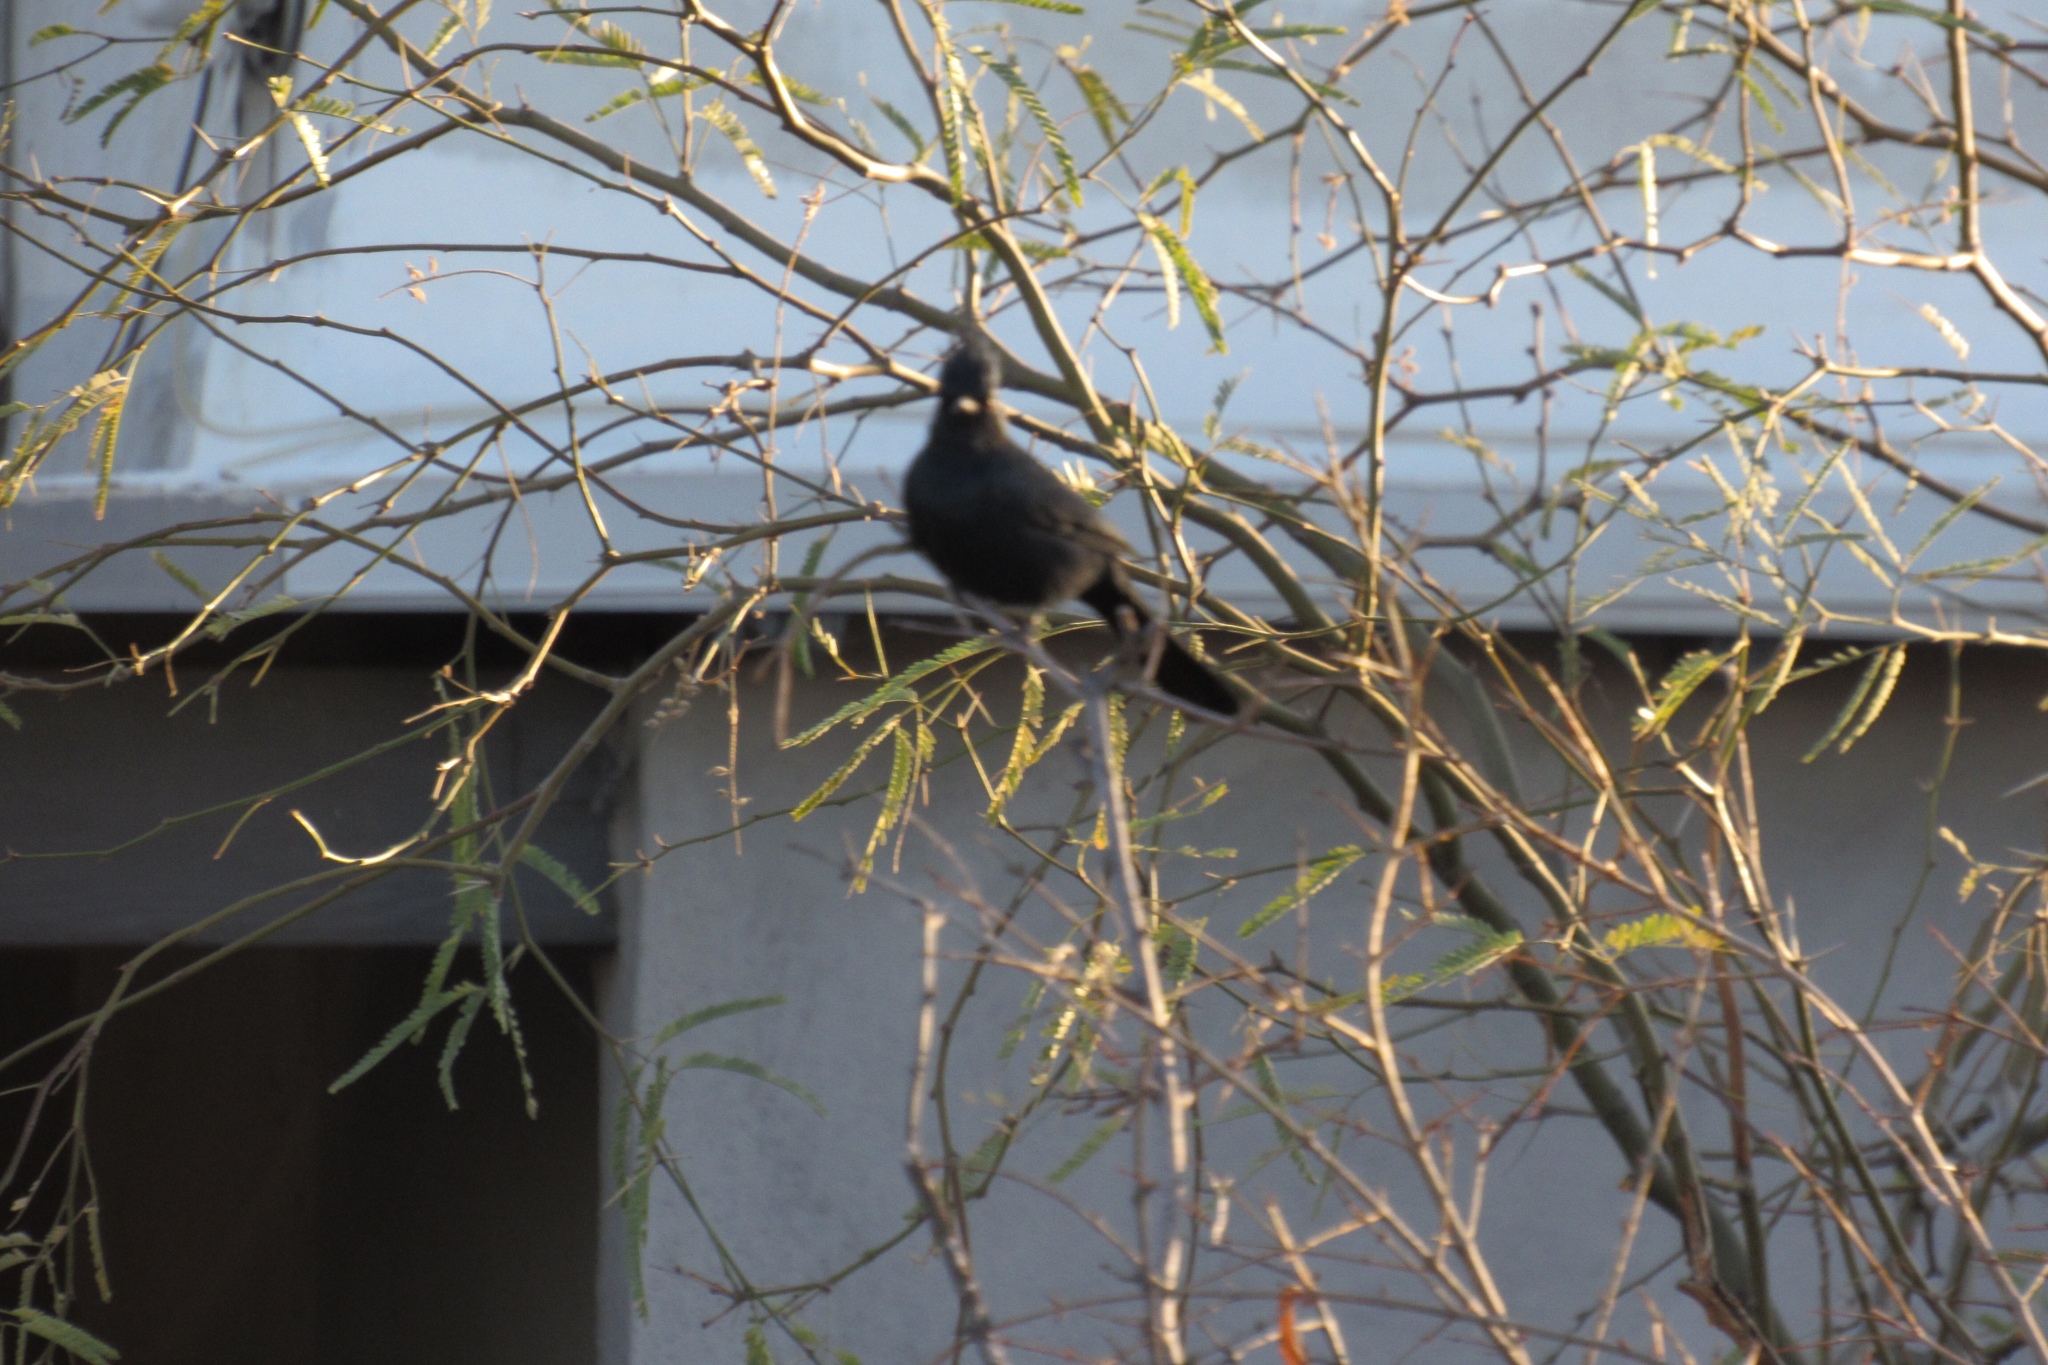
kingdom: Animalia
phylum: Chordata
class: Aves
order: Passeriformes
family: Ptilogonatidae
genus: Phainopepla
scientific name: Phainopepla nitens
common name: Phainopepla
